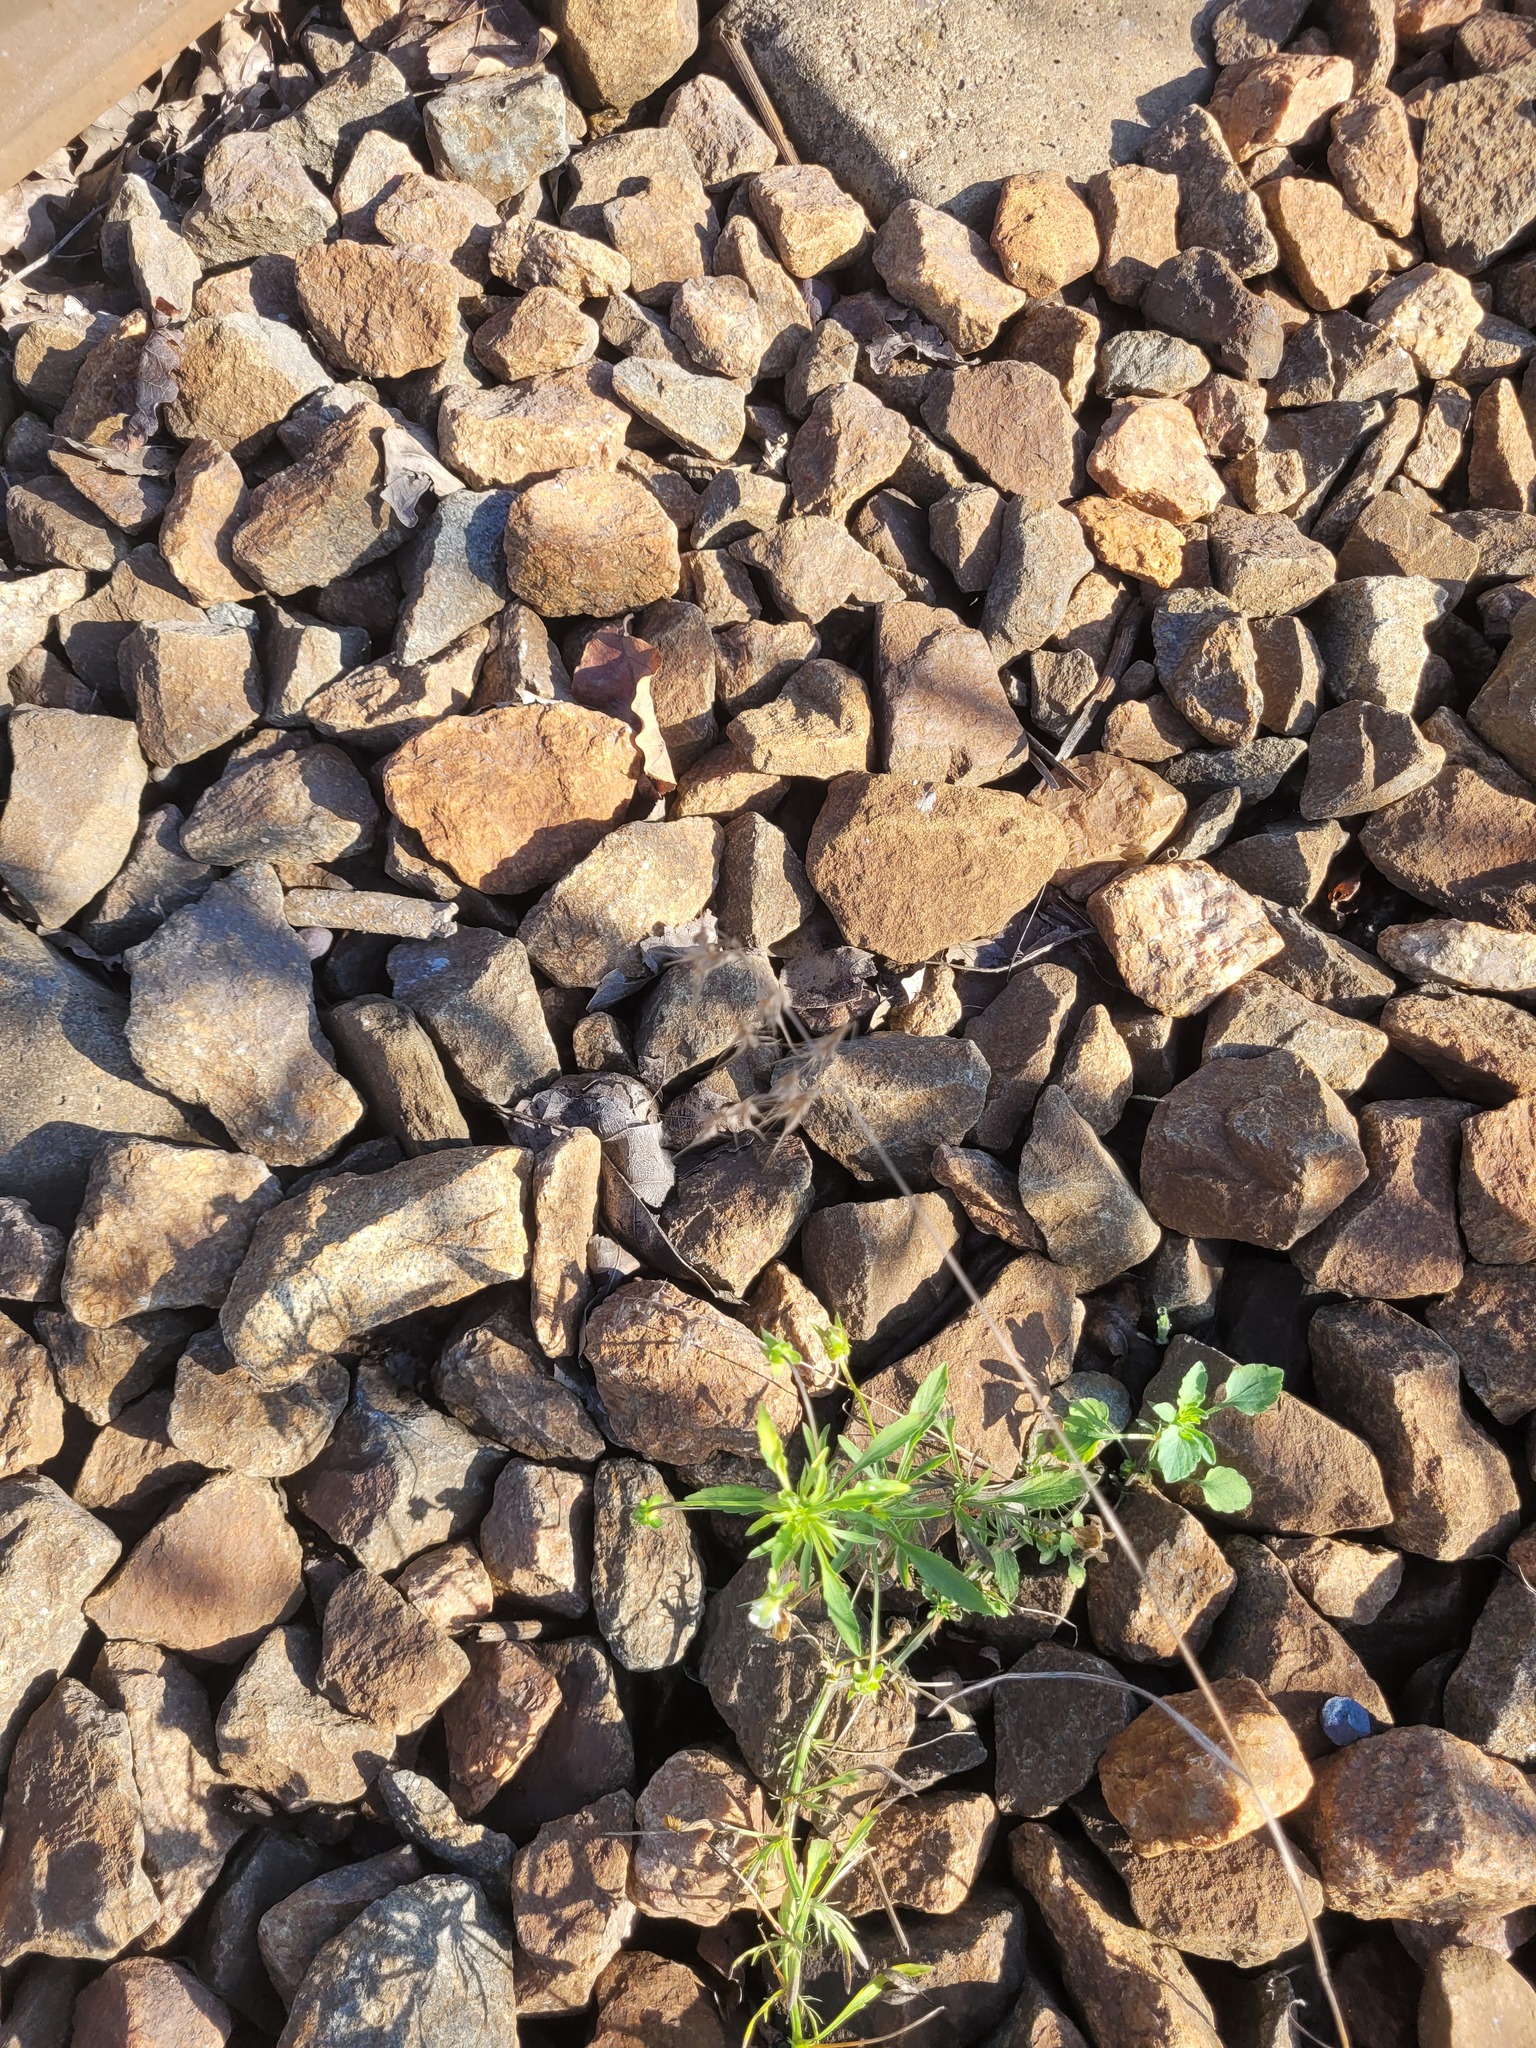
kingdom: Plantae
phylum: Tracheophyta
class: Liliopsida
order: Poales
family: Poaceae
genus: Bromus
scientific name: Bromus tectorum
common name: Cheatgrass
